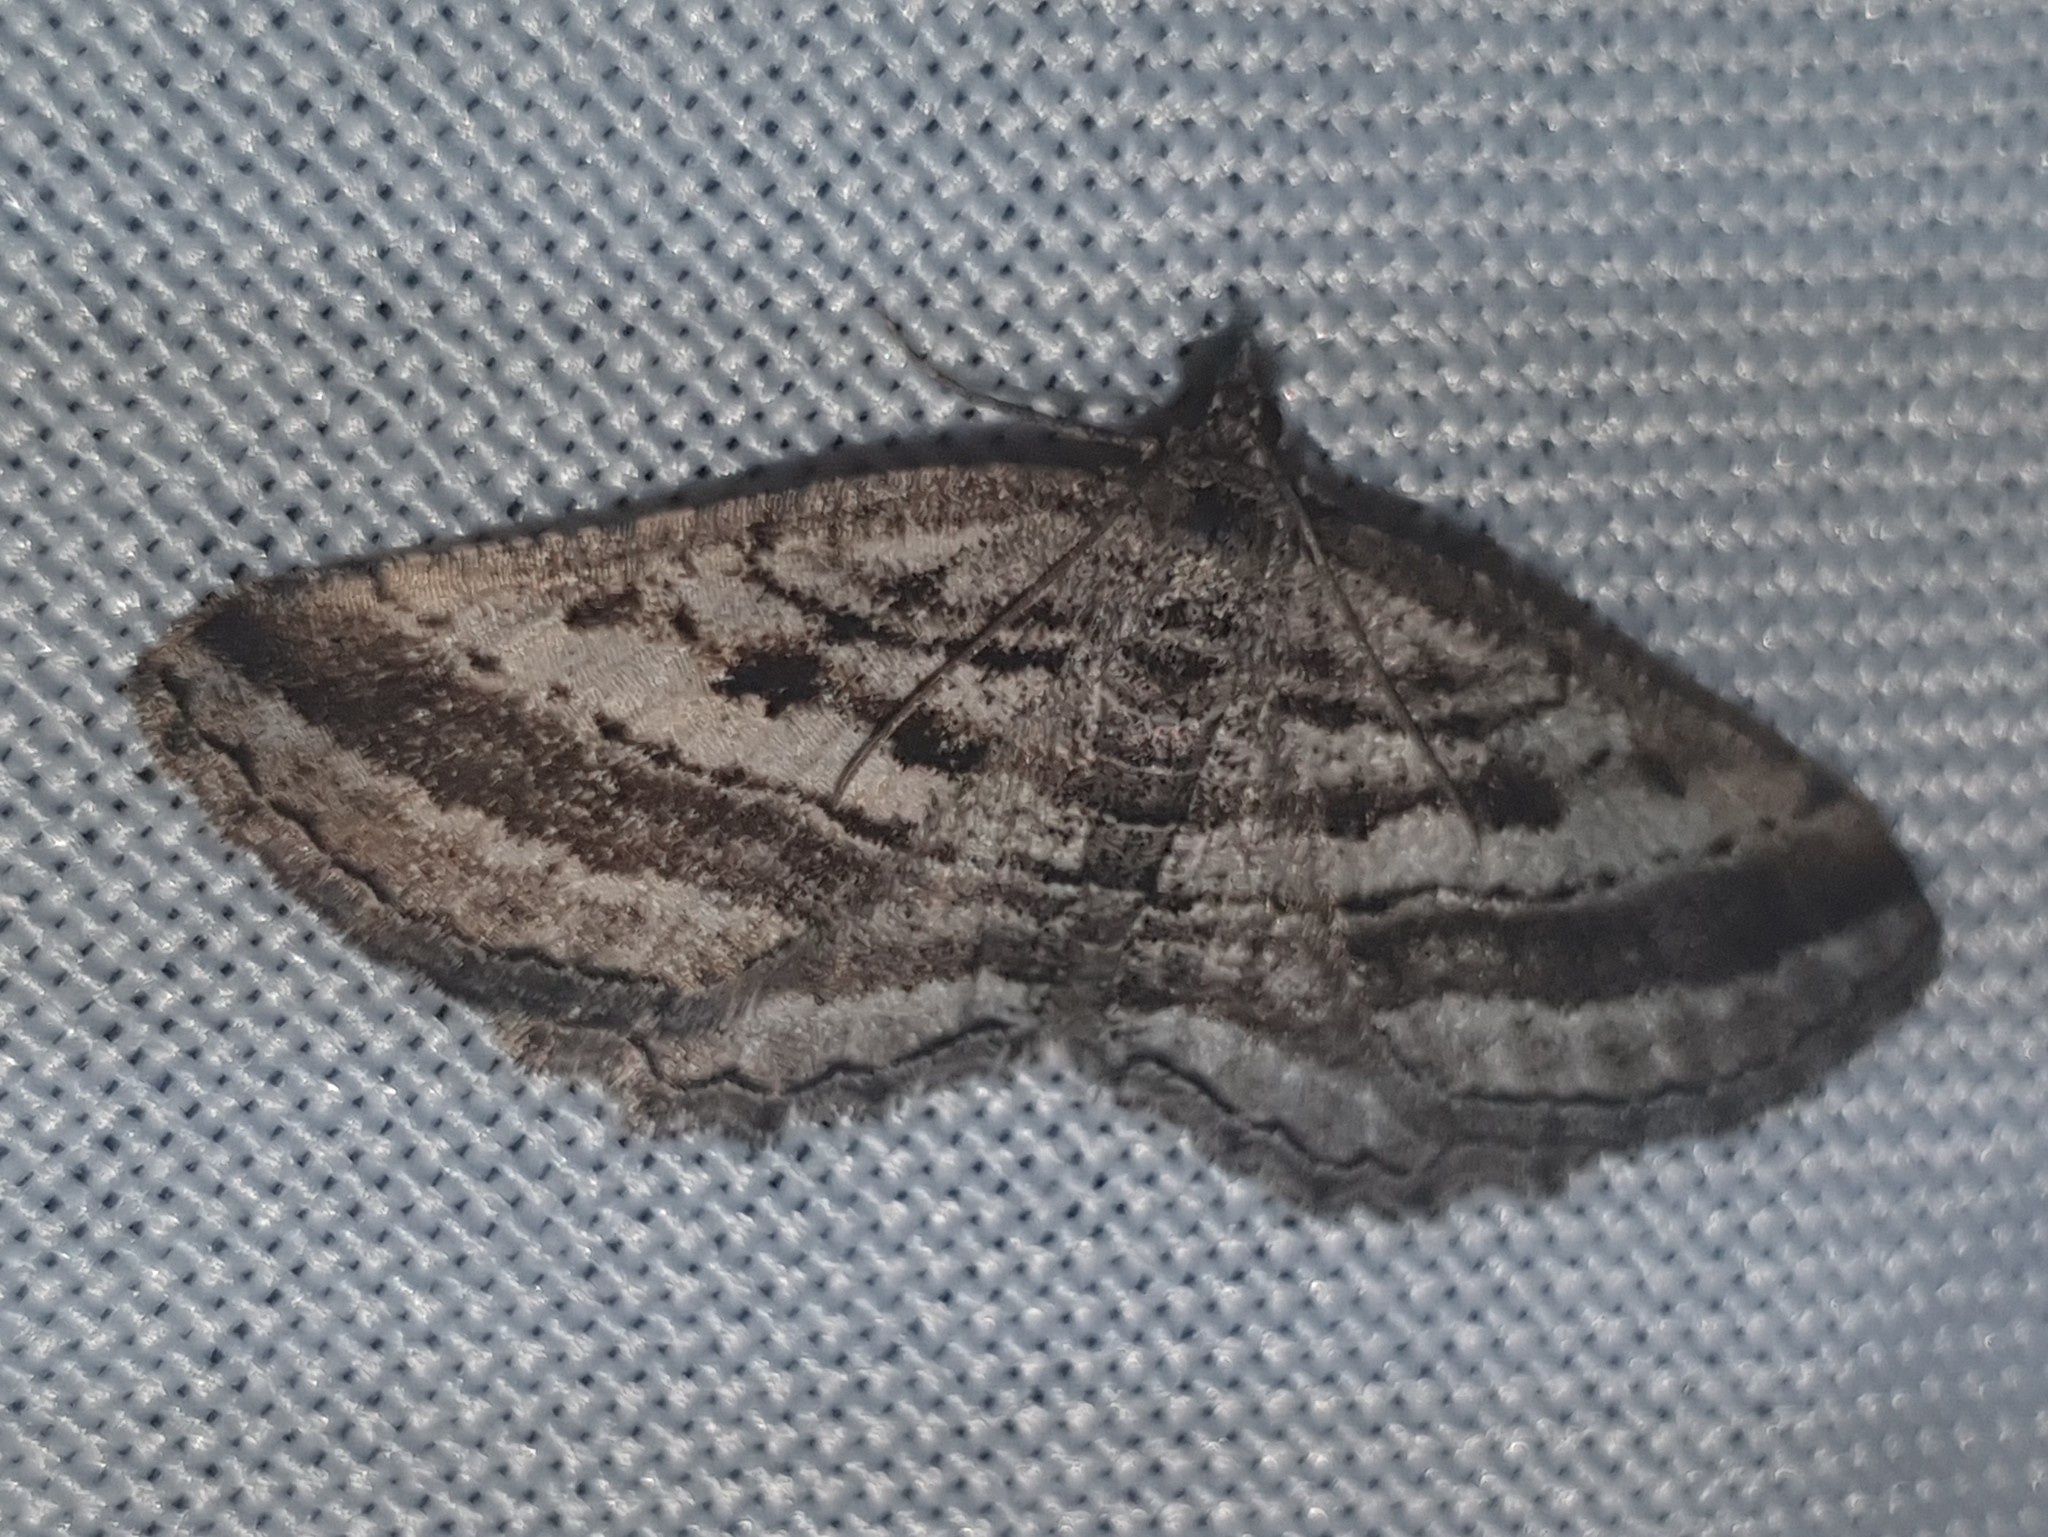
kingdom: Animalia
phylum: Arthropoda
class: Insecta
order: Lepidoptera
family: Geometridae
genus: Rhoptria
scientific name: Rhoptria asperaria
